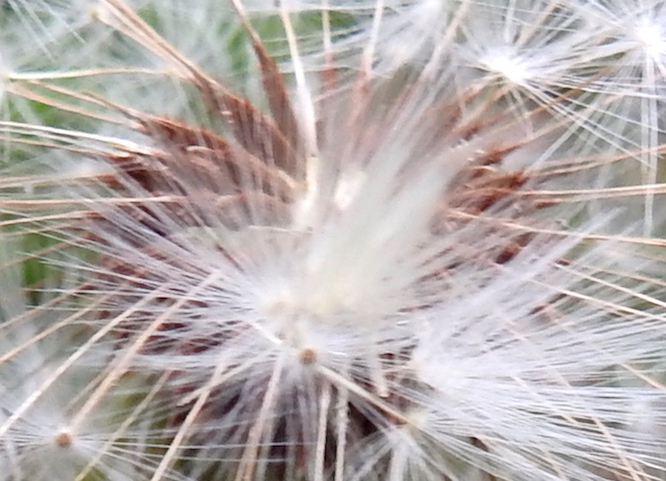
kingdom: Plantae
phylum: Tracheophyta
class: Magnoliopsida
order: Asterales
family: Asteraceae
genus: Taraxacum
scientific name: Taraxacum officinale
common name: Common dandelion
